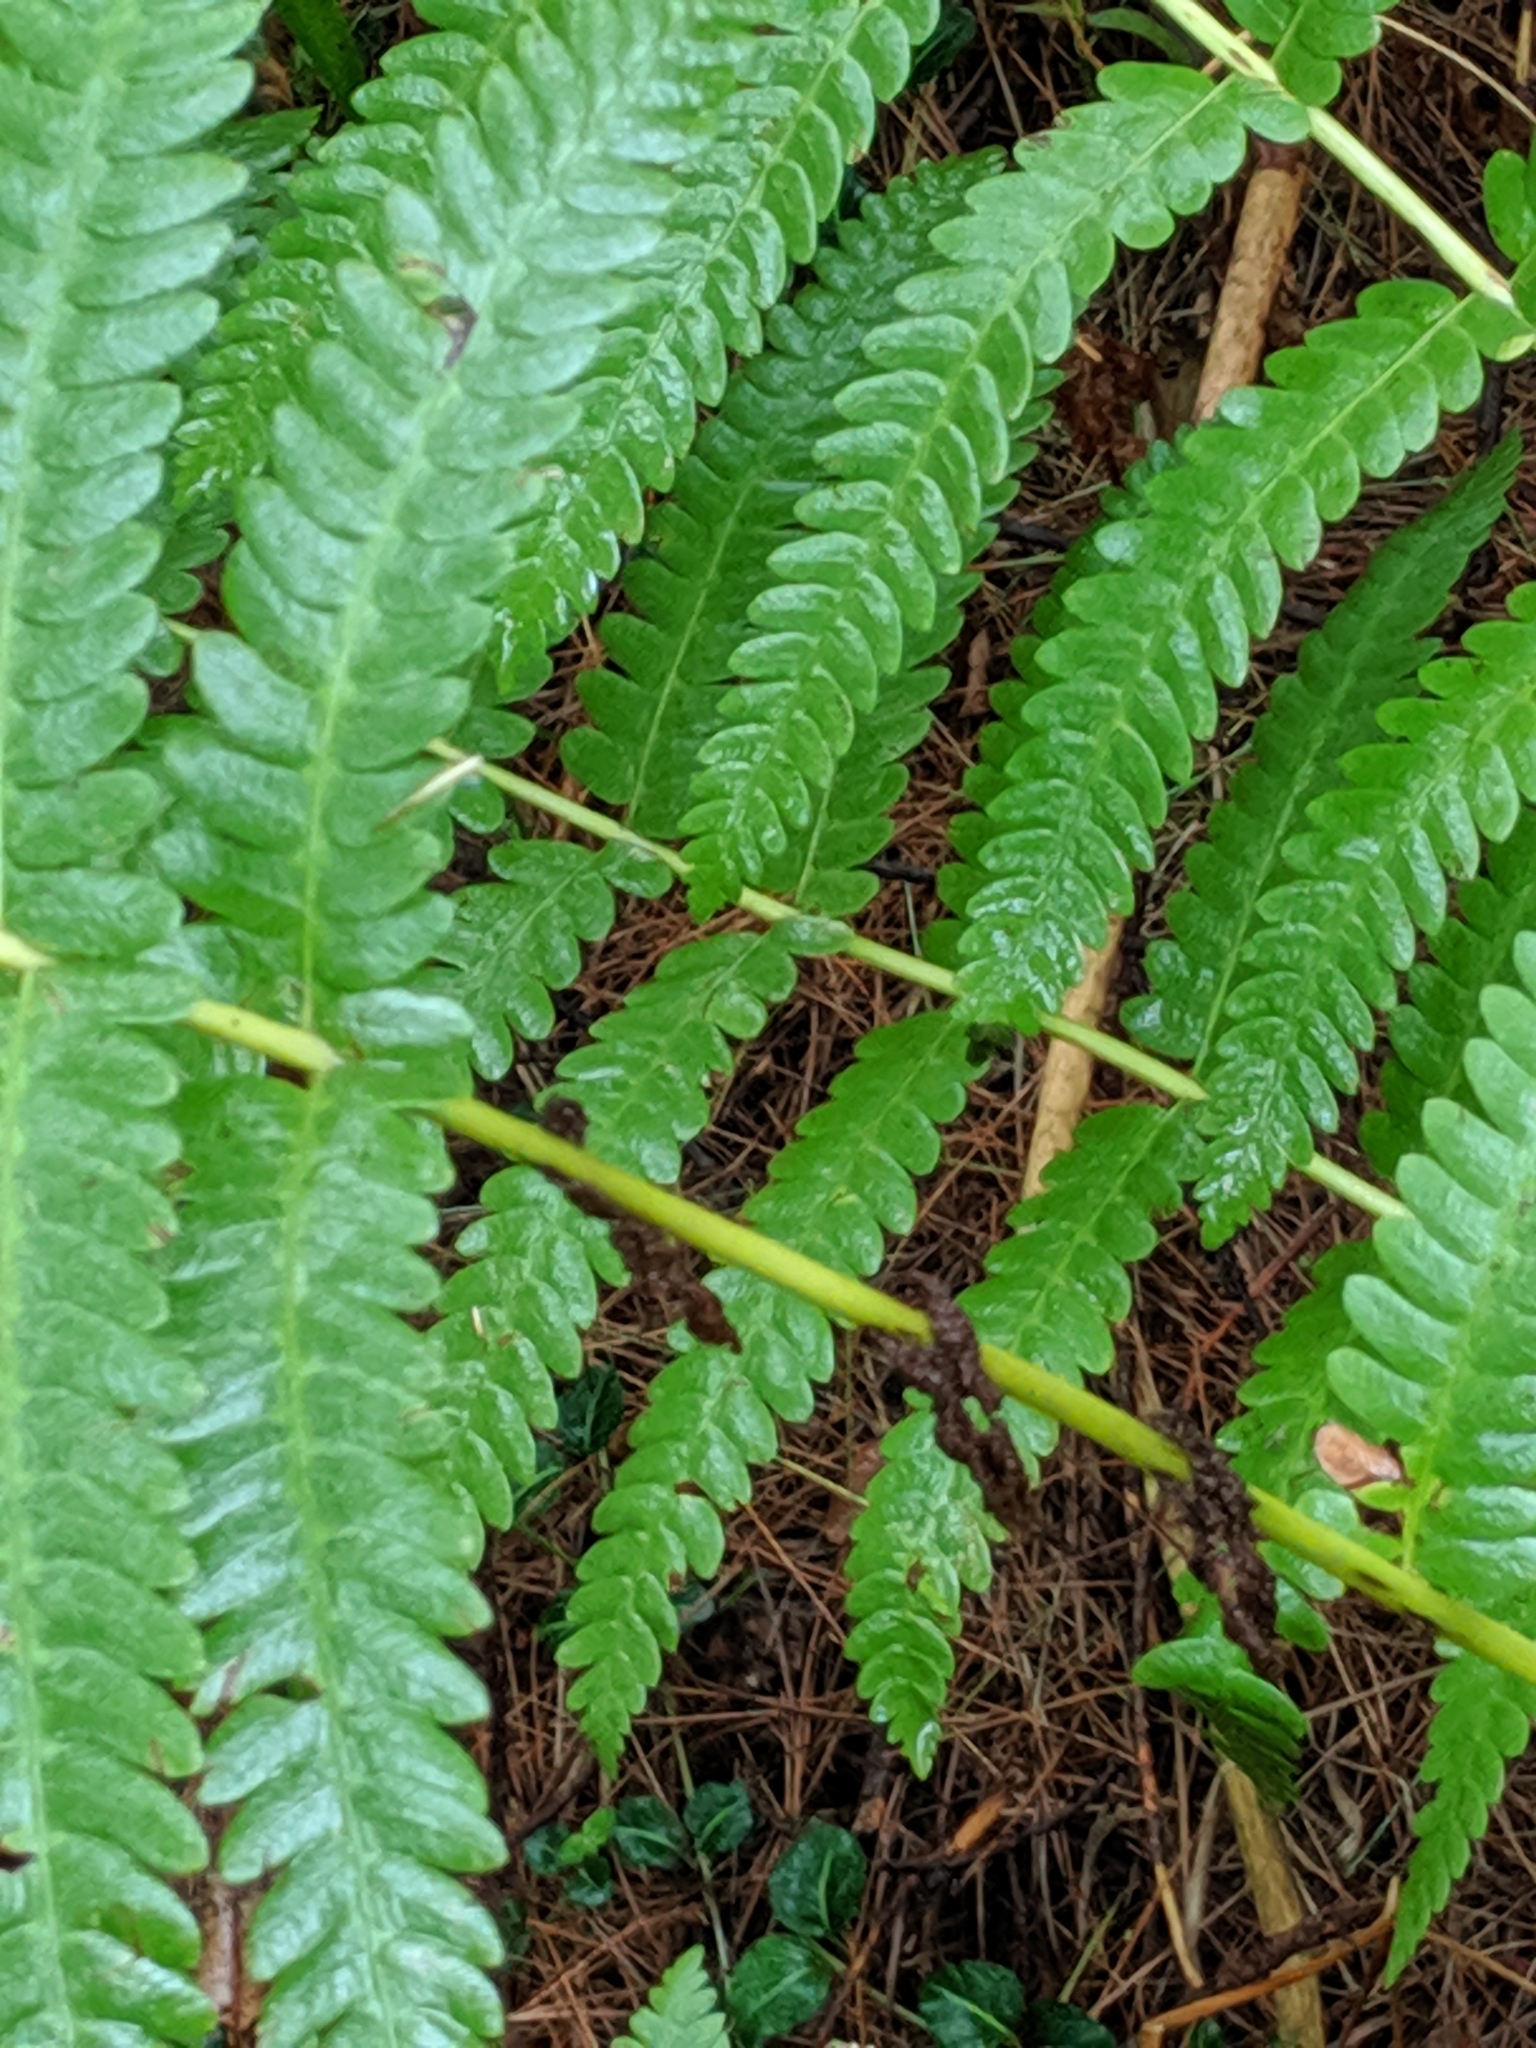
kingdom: Plantae
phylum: Tracheophyta
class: Polypodiopsida
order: Osmundales
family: Osmundaceae
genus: Claytosmunda
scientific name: Claytosmunda claytoniana
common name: Clayton's fern
